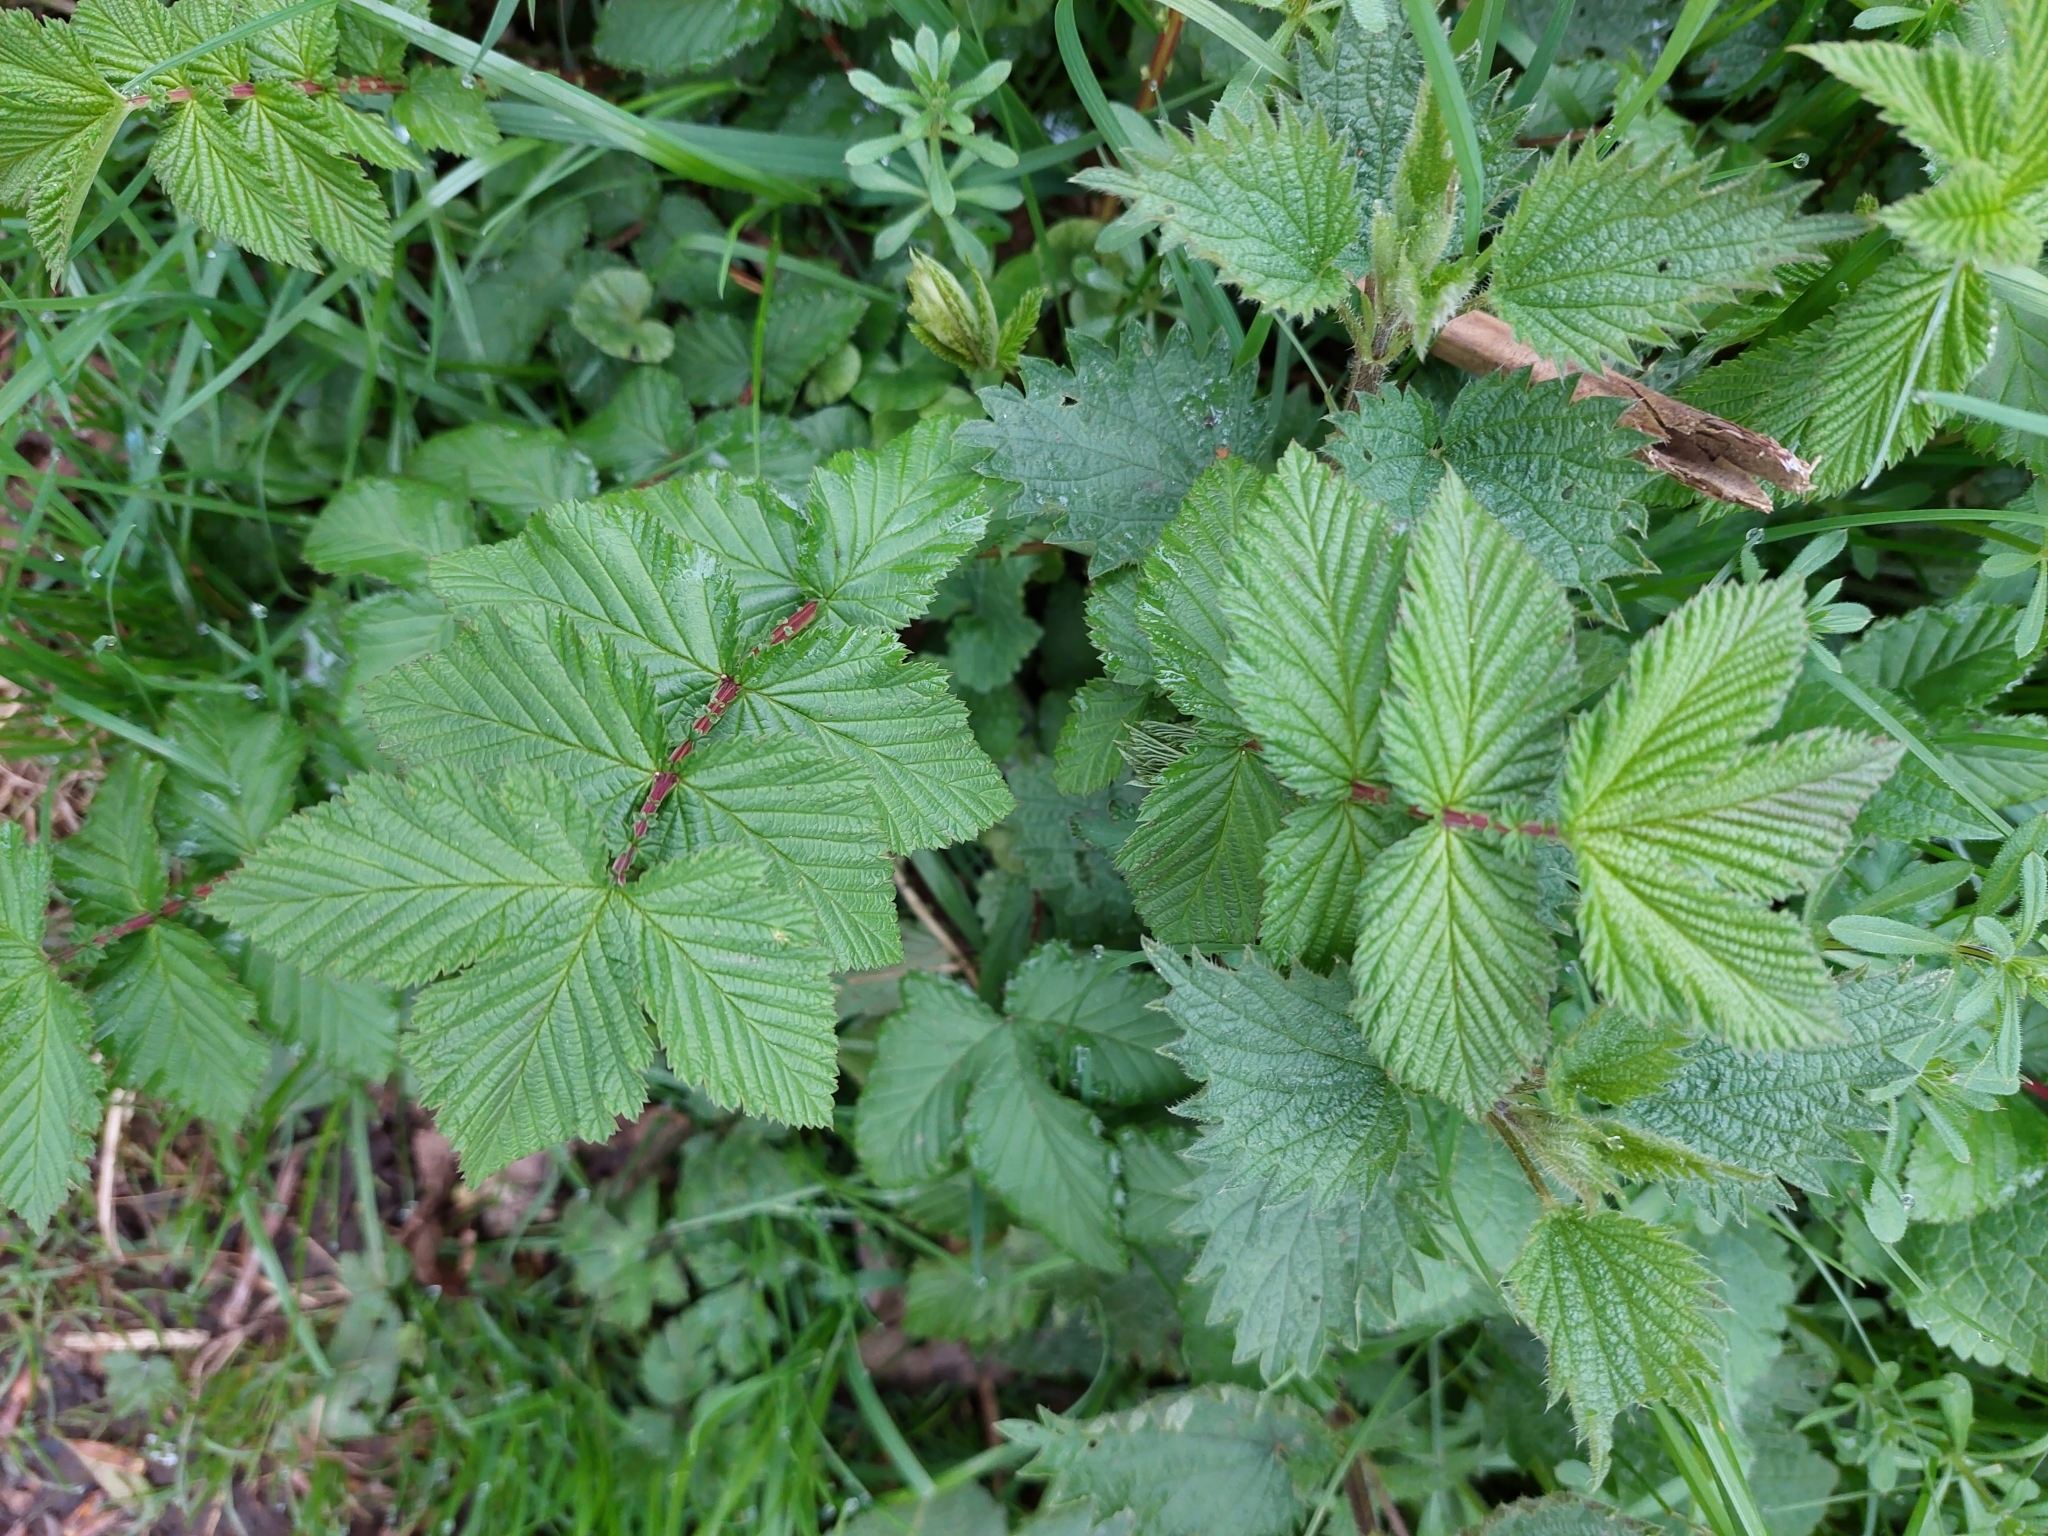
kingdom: Plantae
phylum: Tracheophyta
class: Magnoliopsida
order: Rosales
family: Rosaceae
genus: Filipendula
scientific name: Filipendula ulmaria
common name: Meadowsweet
